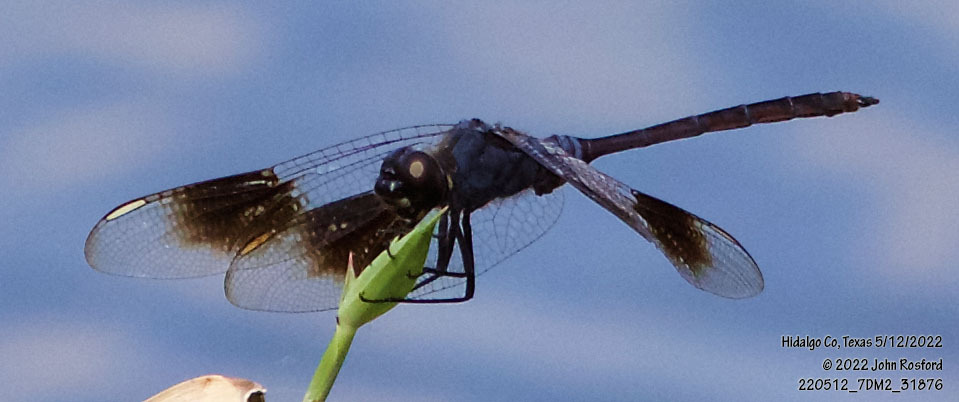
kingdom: Animalia
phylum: Arthropoda
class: Insecta
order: Odonata
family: Libellulidae
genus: Brachymesia
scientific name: Brachymesia gravida
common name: Four-spotted pennant
